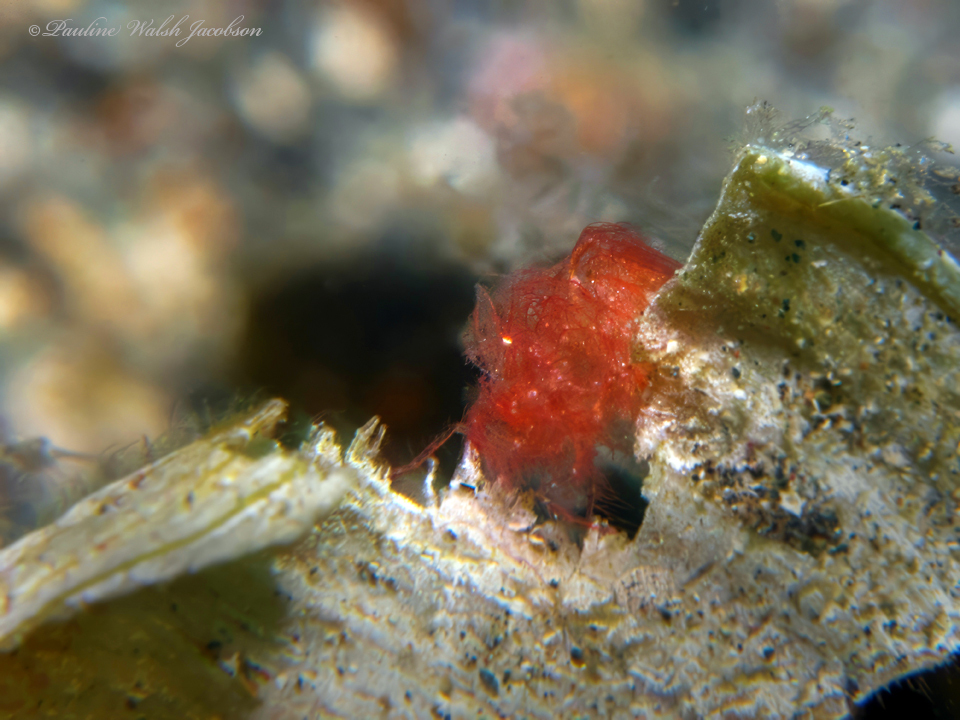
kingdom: Animalia
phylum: Arthropoda
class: Malacostraca
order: Decapoda
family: Hippolytidae
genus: Phycocaris
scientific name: Phycocaris simulans
